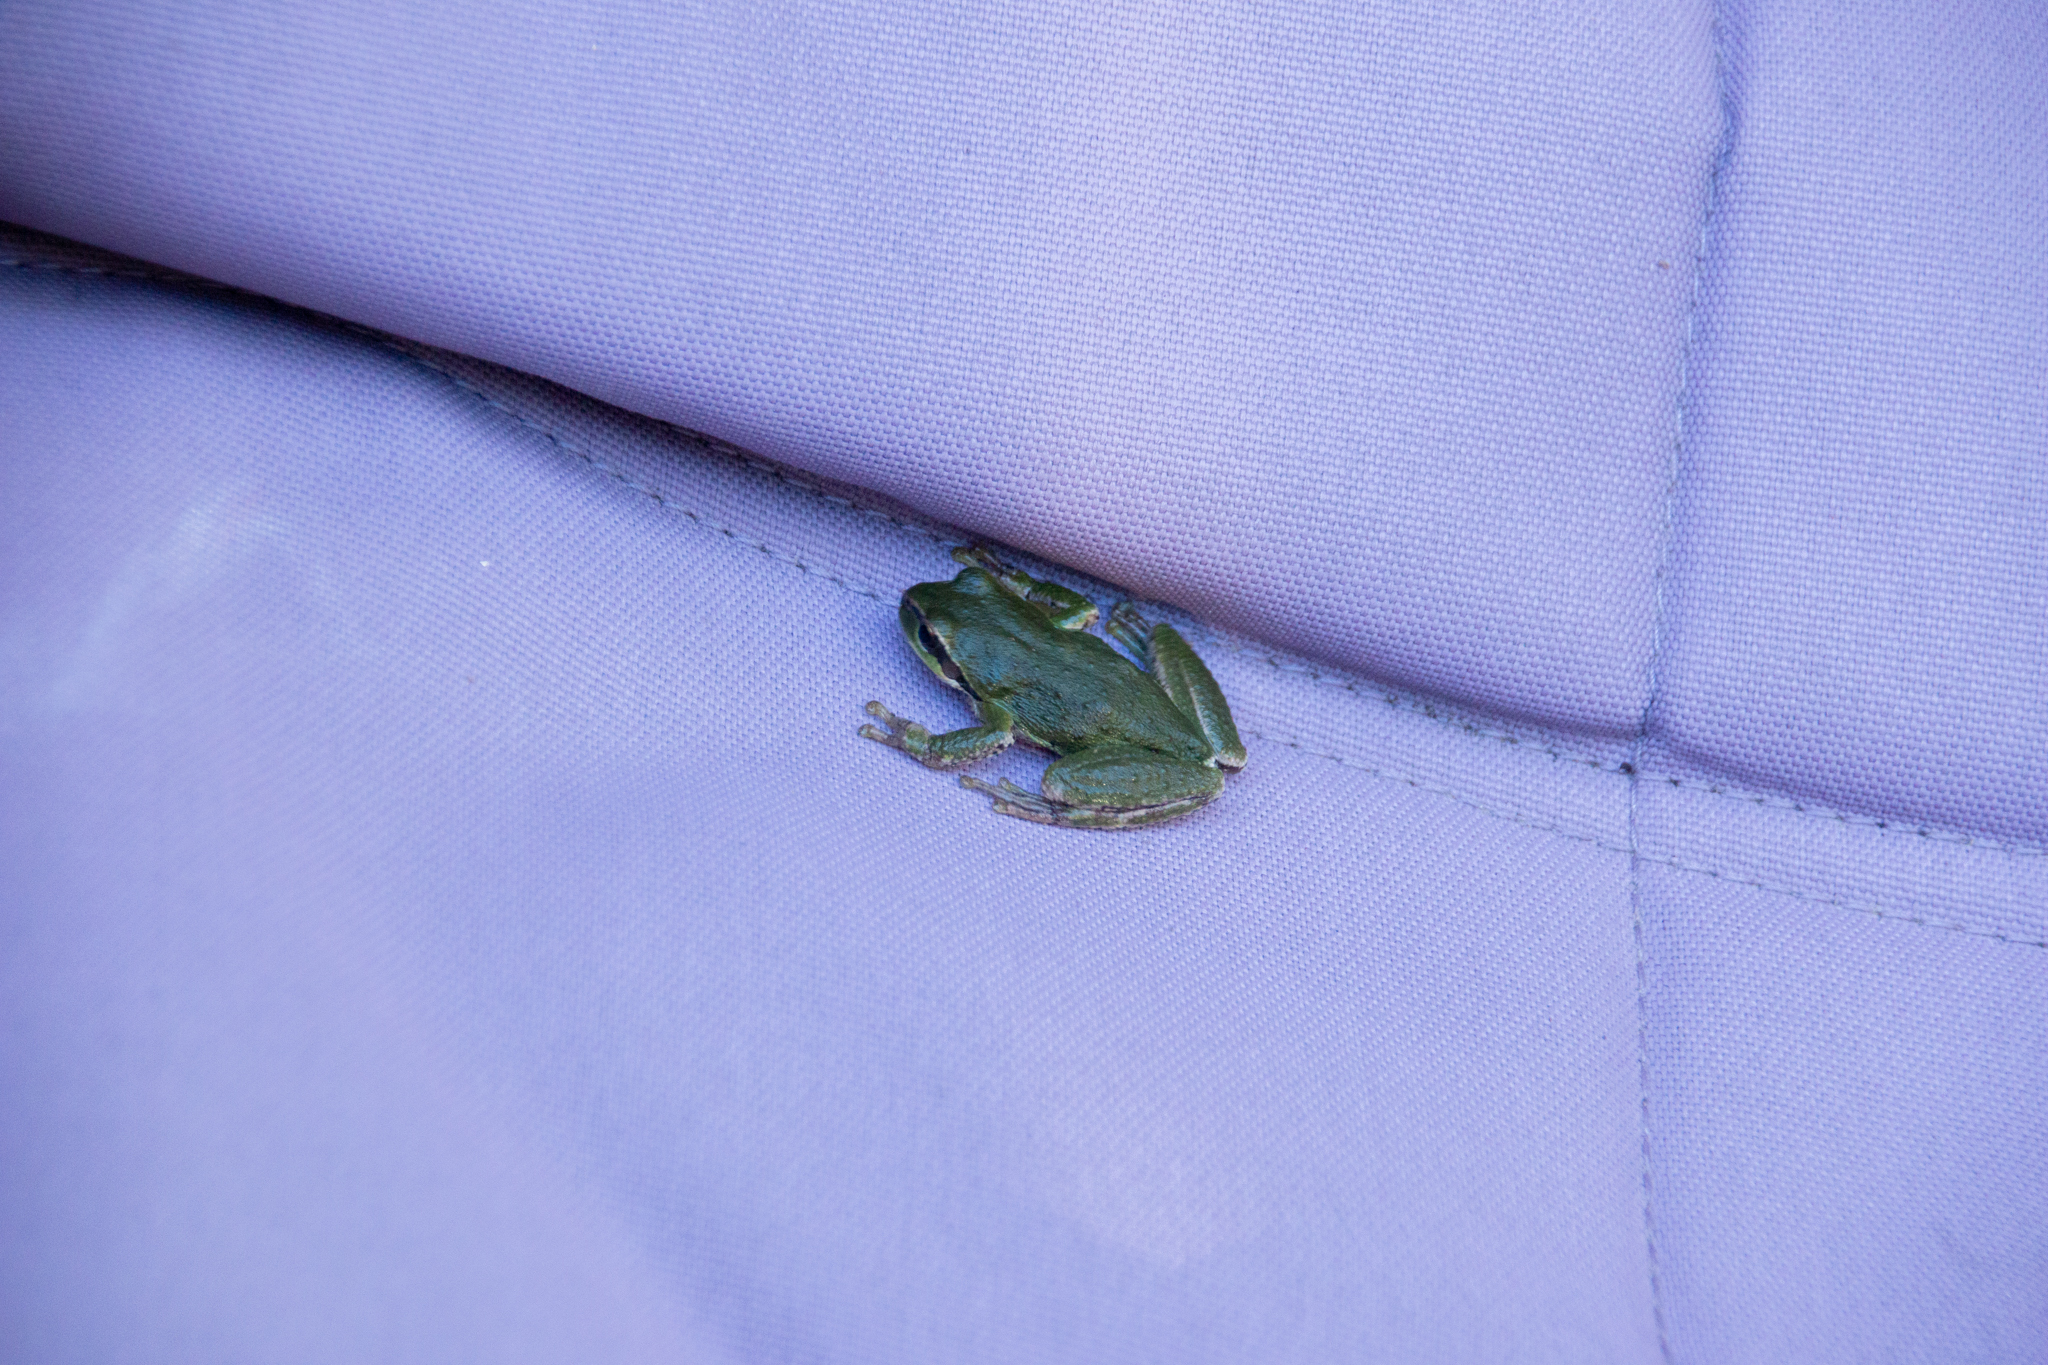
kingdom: Animalia
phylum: Chordata
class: Amphibia
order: Anura
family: Hylidae
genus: Pseudacris
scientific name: Pseudacris regilla
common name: Pacific chorus frog
